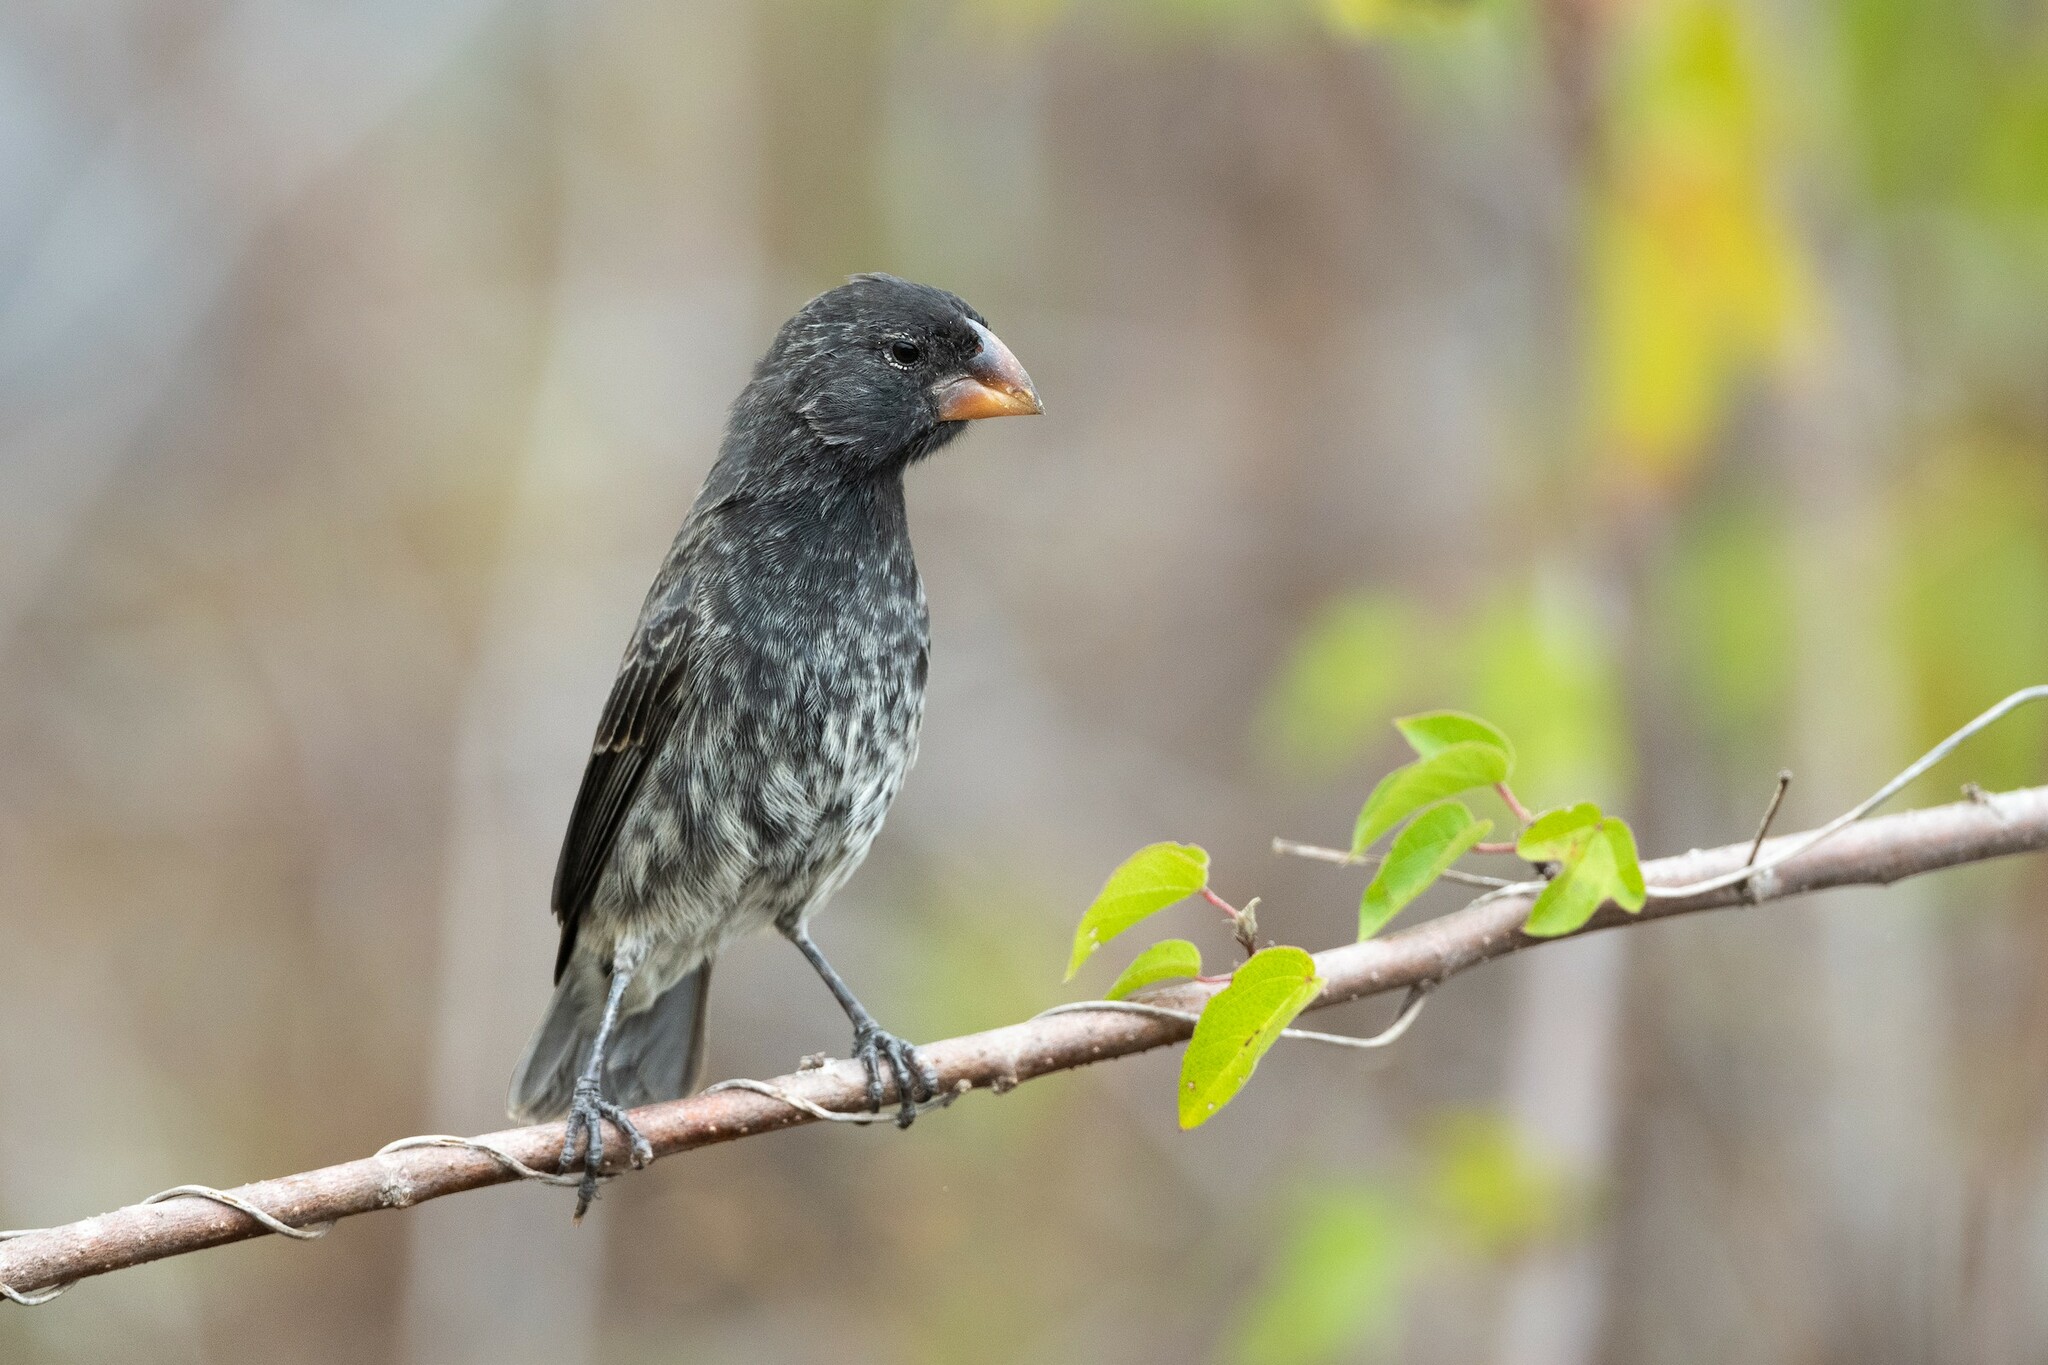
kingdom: Animalia
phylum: Chordata
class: Aves
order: Passeriformes
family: Thraupidae
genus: Geospiza
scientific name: Geospiza fortis
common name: Medium ground finch
